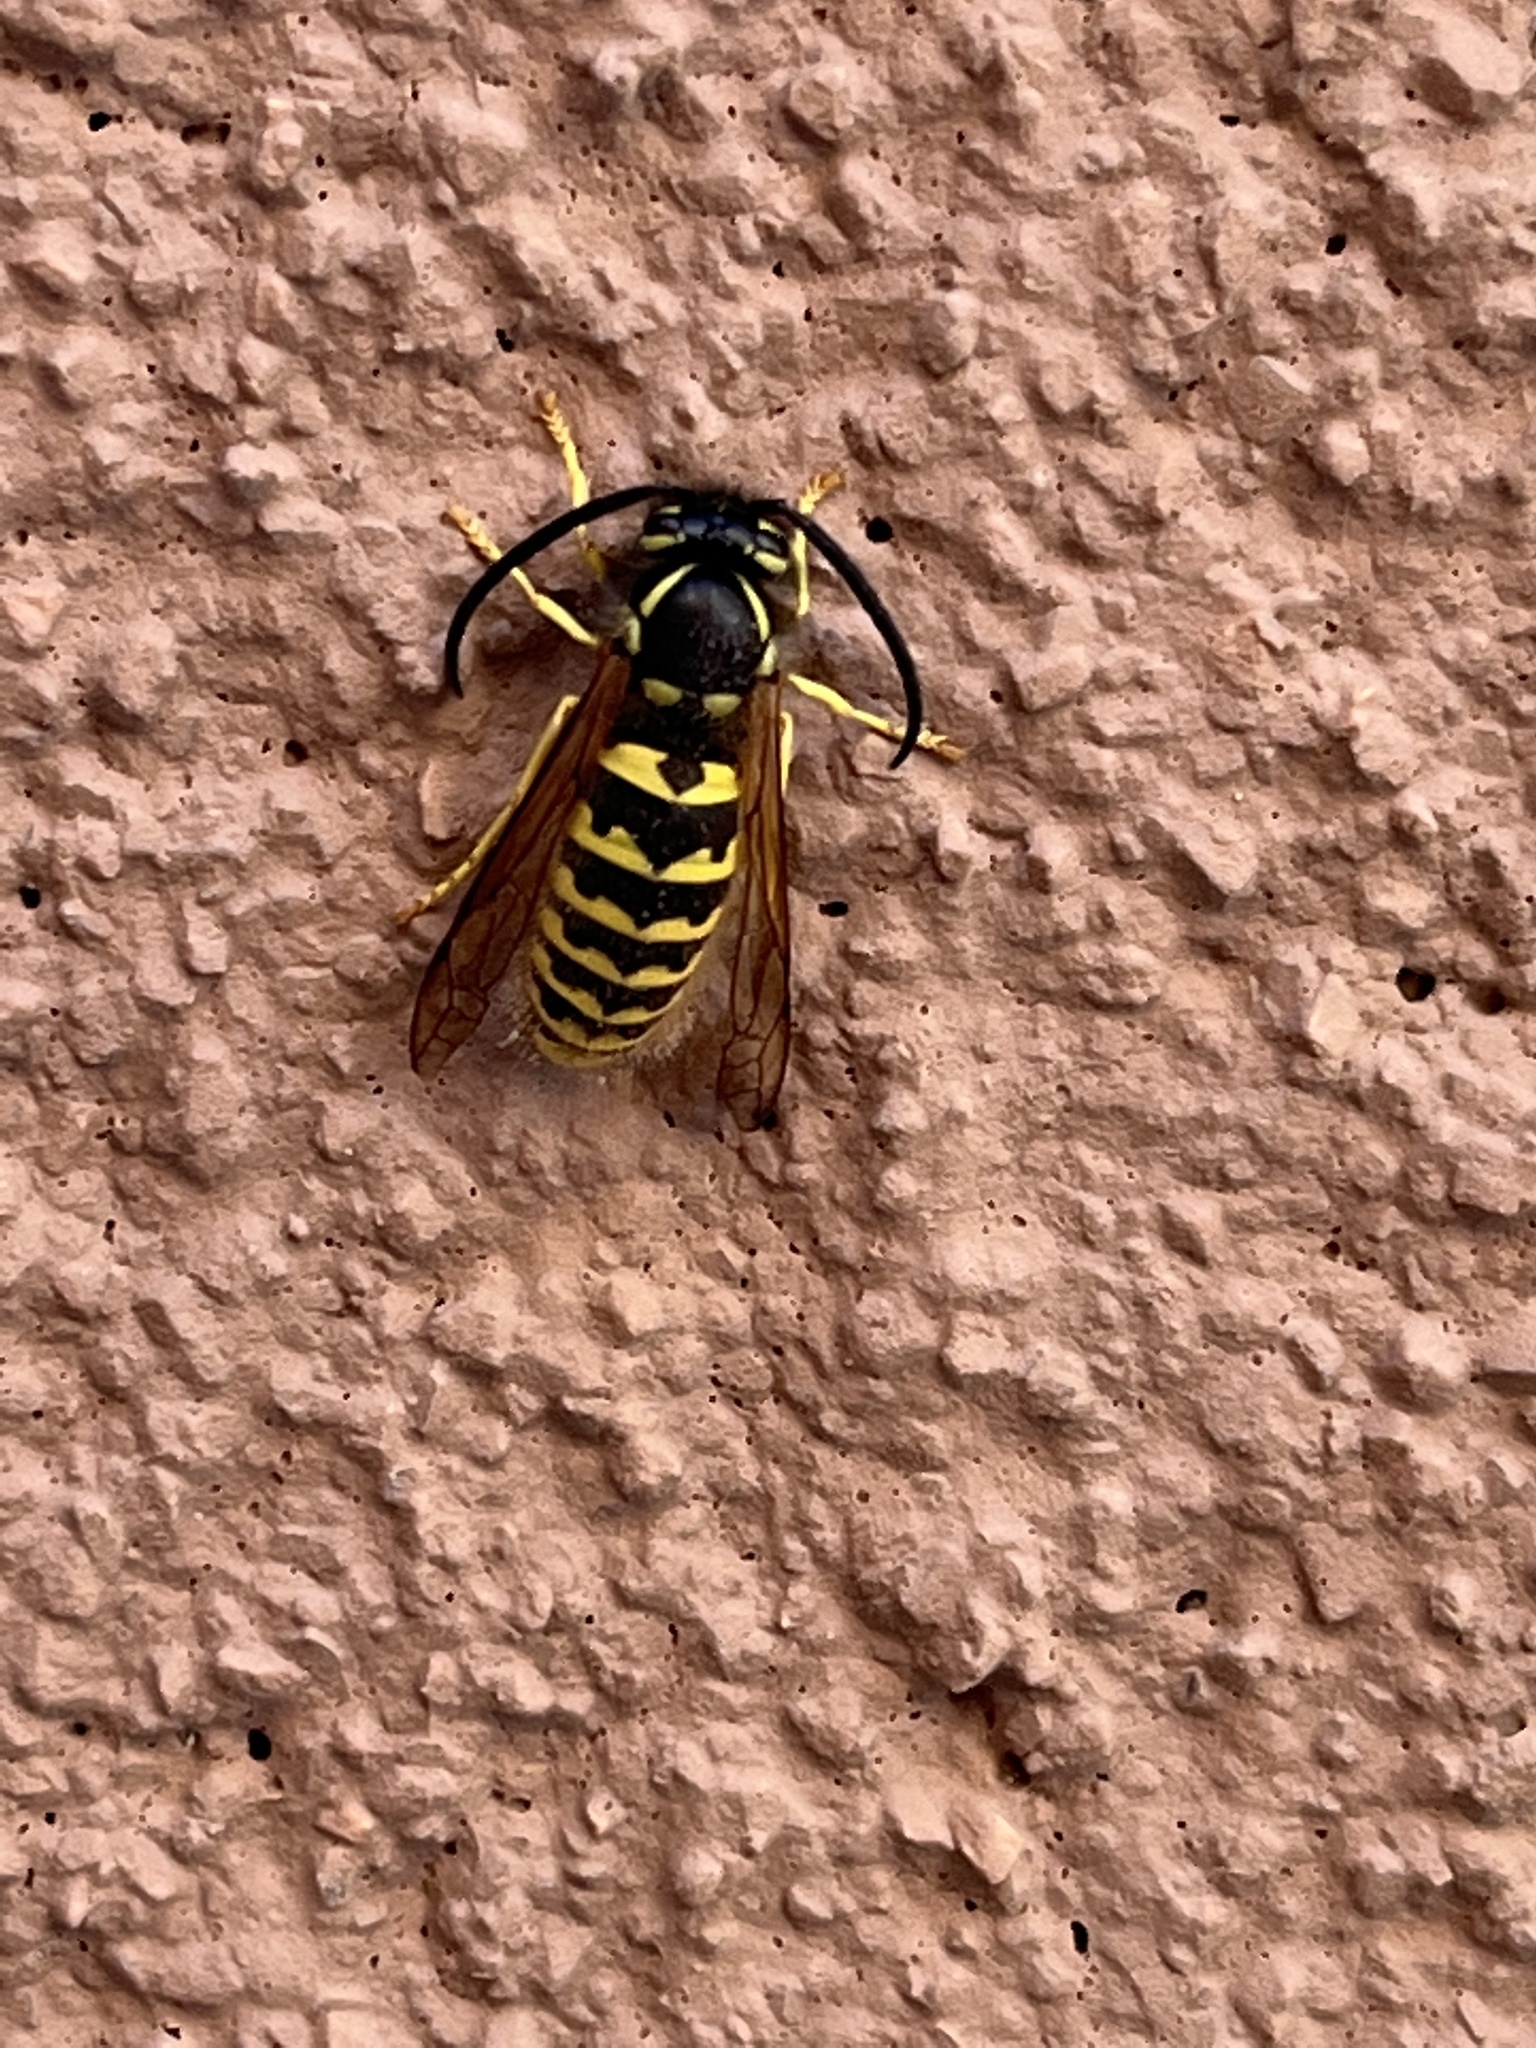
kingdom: Animalia
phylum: Arthropoda
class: Insecta
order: Hymenoptera
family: Vespidae
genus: Vespula
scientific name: Vespula pensylvanica
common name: Western yellowjacket
